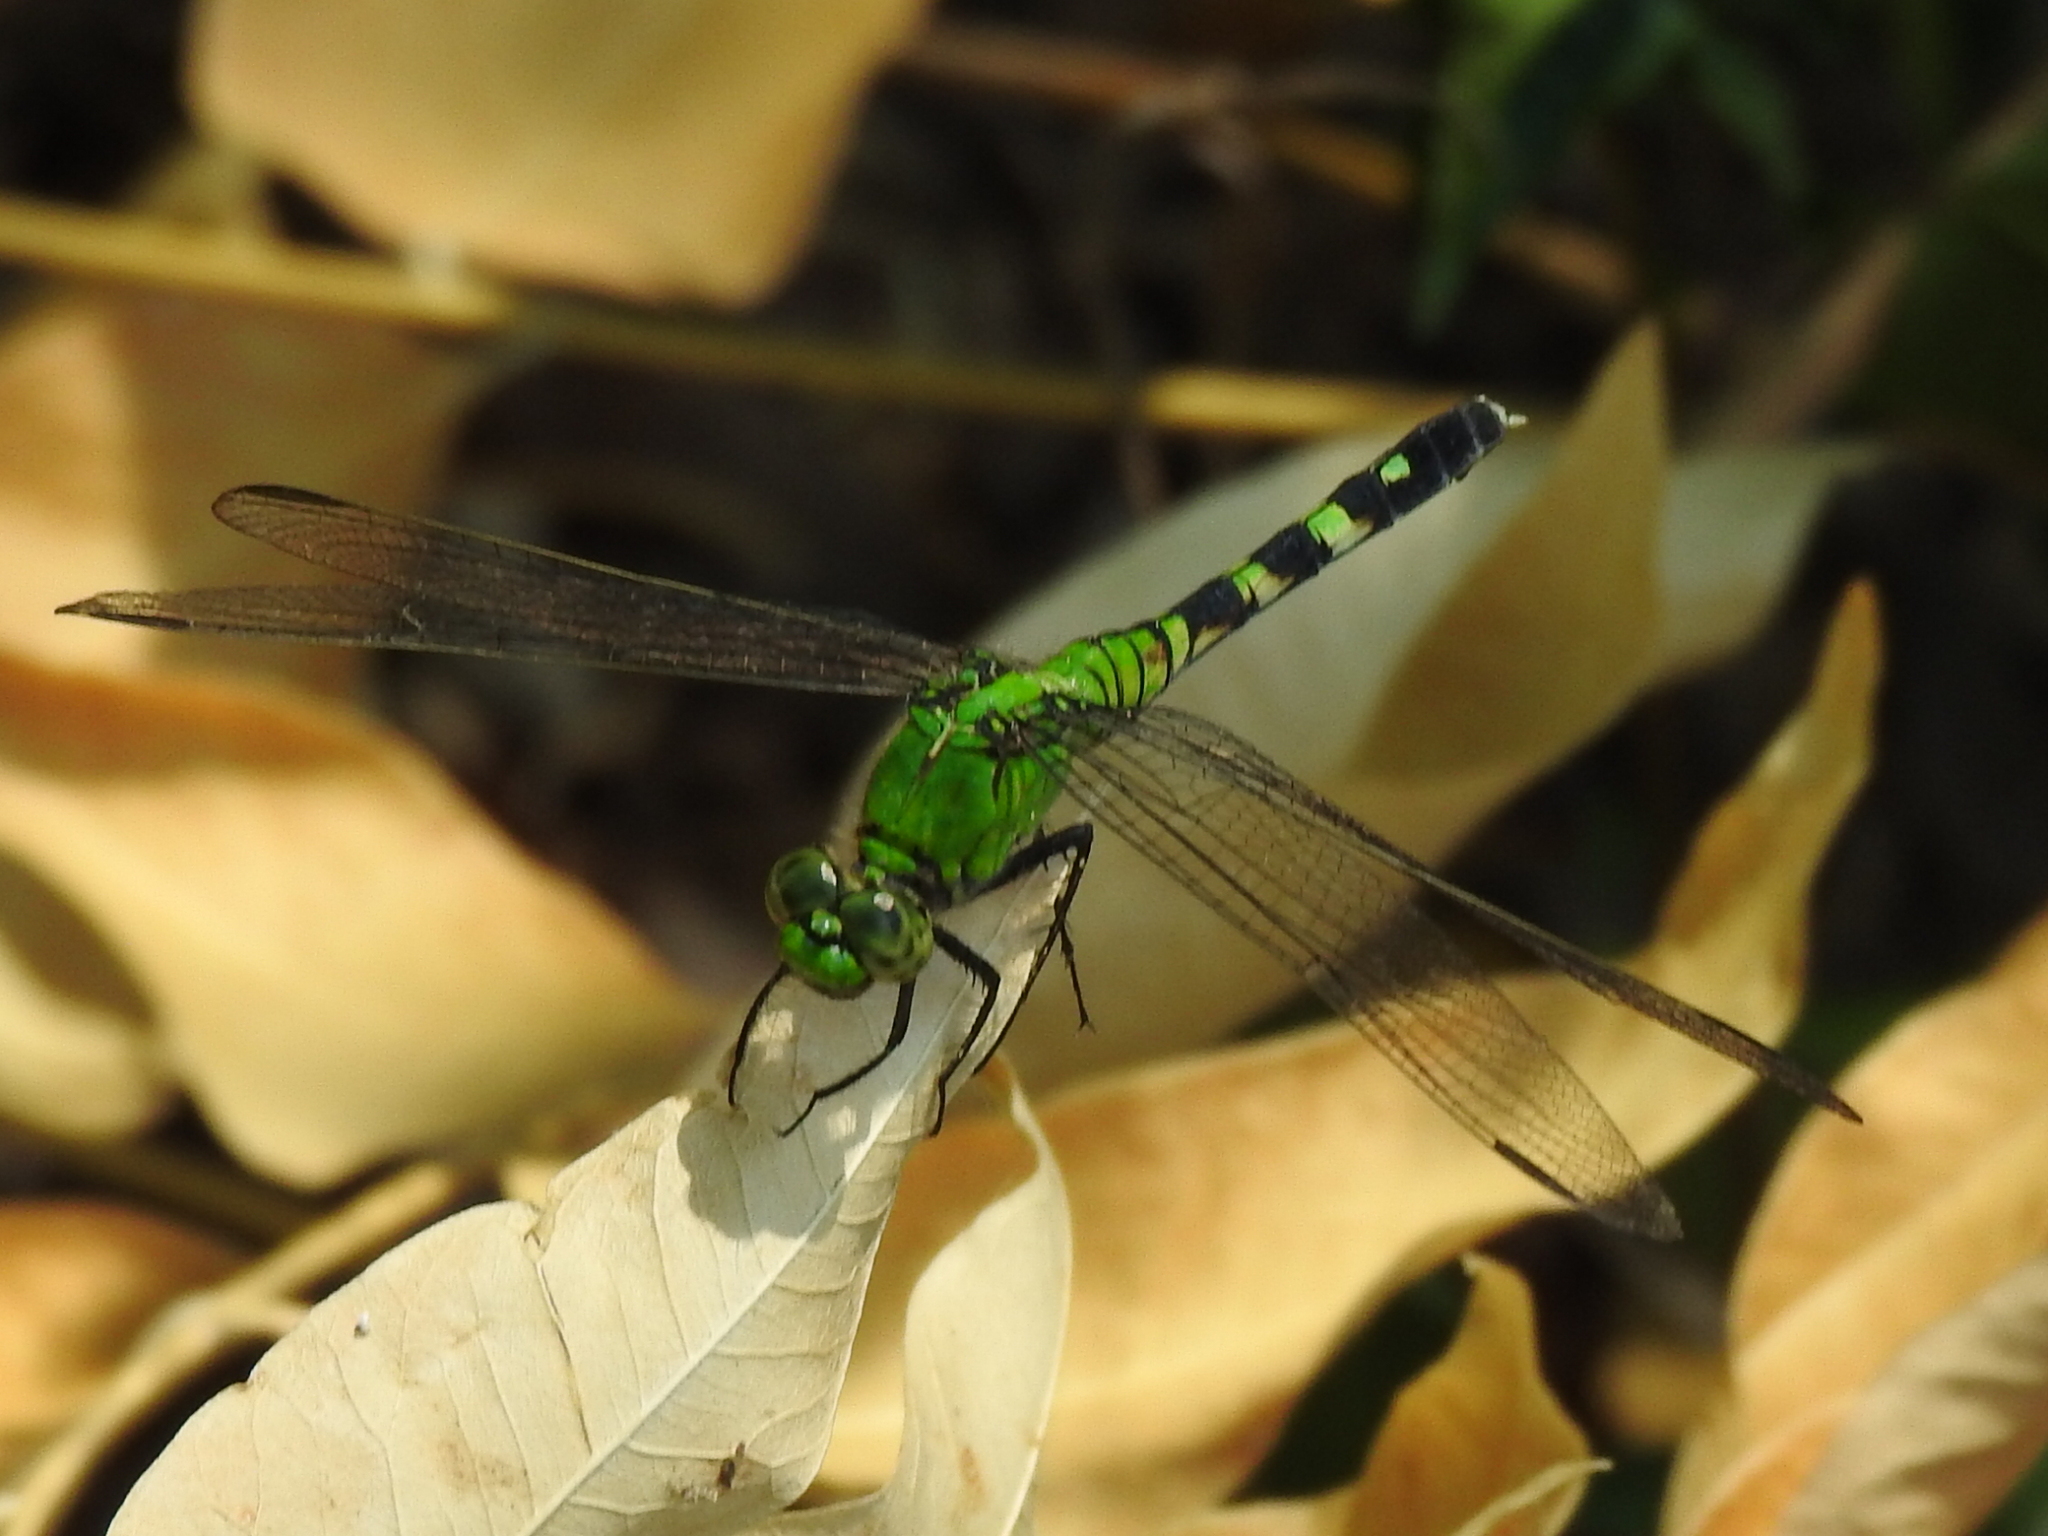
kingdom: Animalia
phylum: Arthropoda
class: Insecta
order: Odonata
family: Libellulidae
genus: Erythemis
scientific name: Erythemis simplicicollis
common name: Eastern pondhawk
